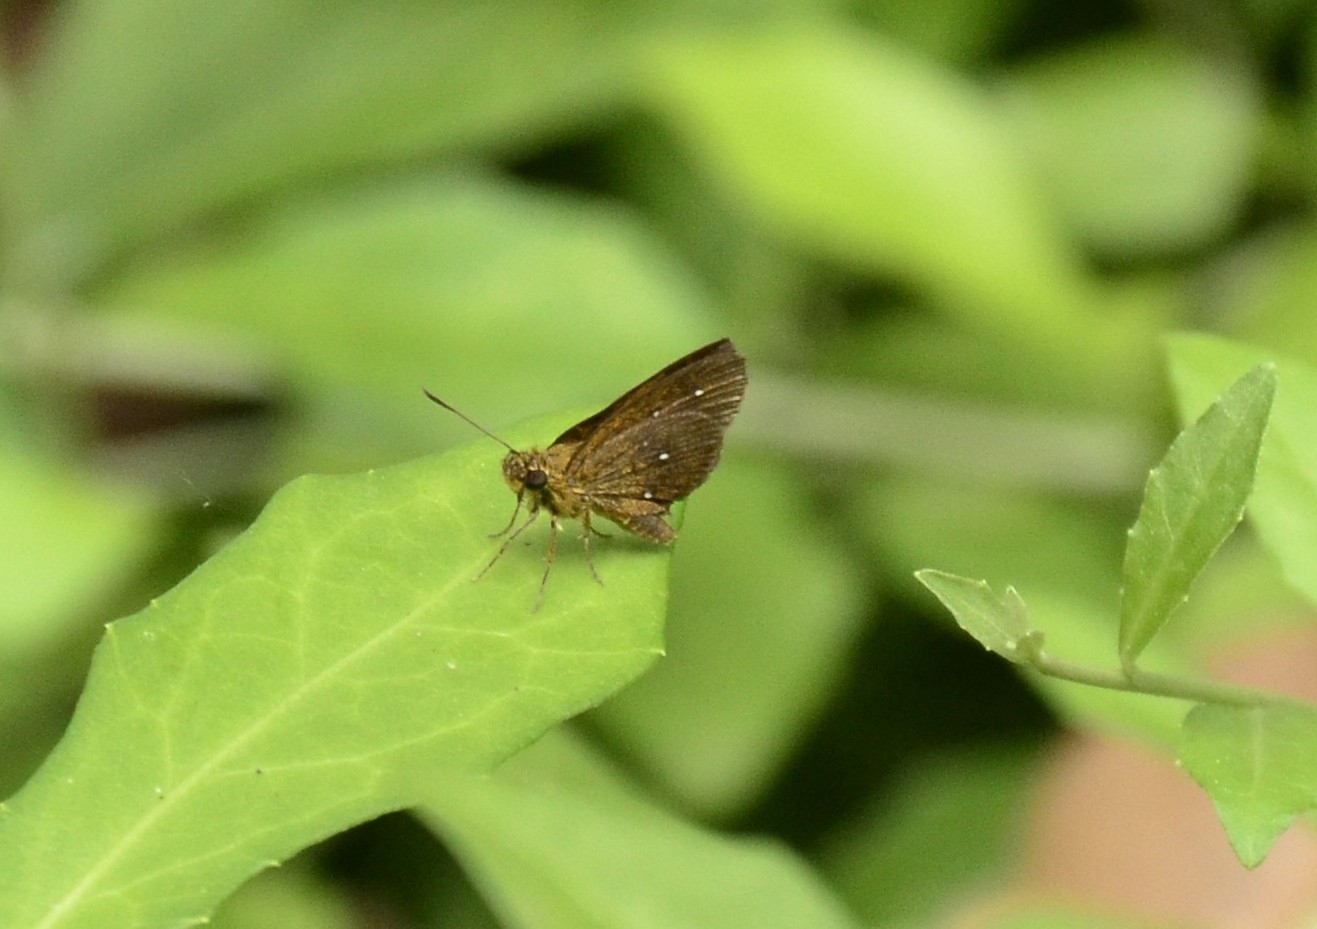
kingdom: Animalia
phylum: Arthropoda
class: Insecta
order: Lepidoptera
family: Hesperiidae
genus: Iambrix
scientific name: Iambrix salsala
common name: Chestnut bob
